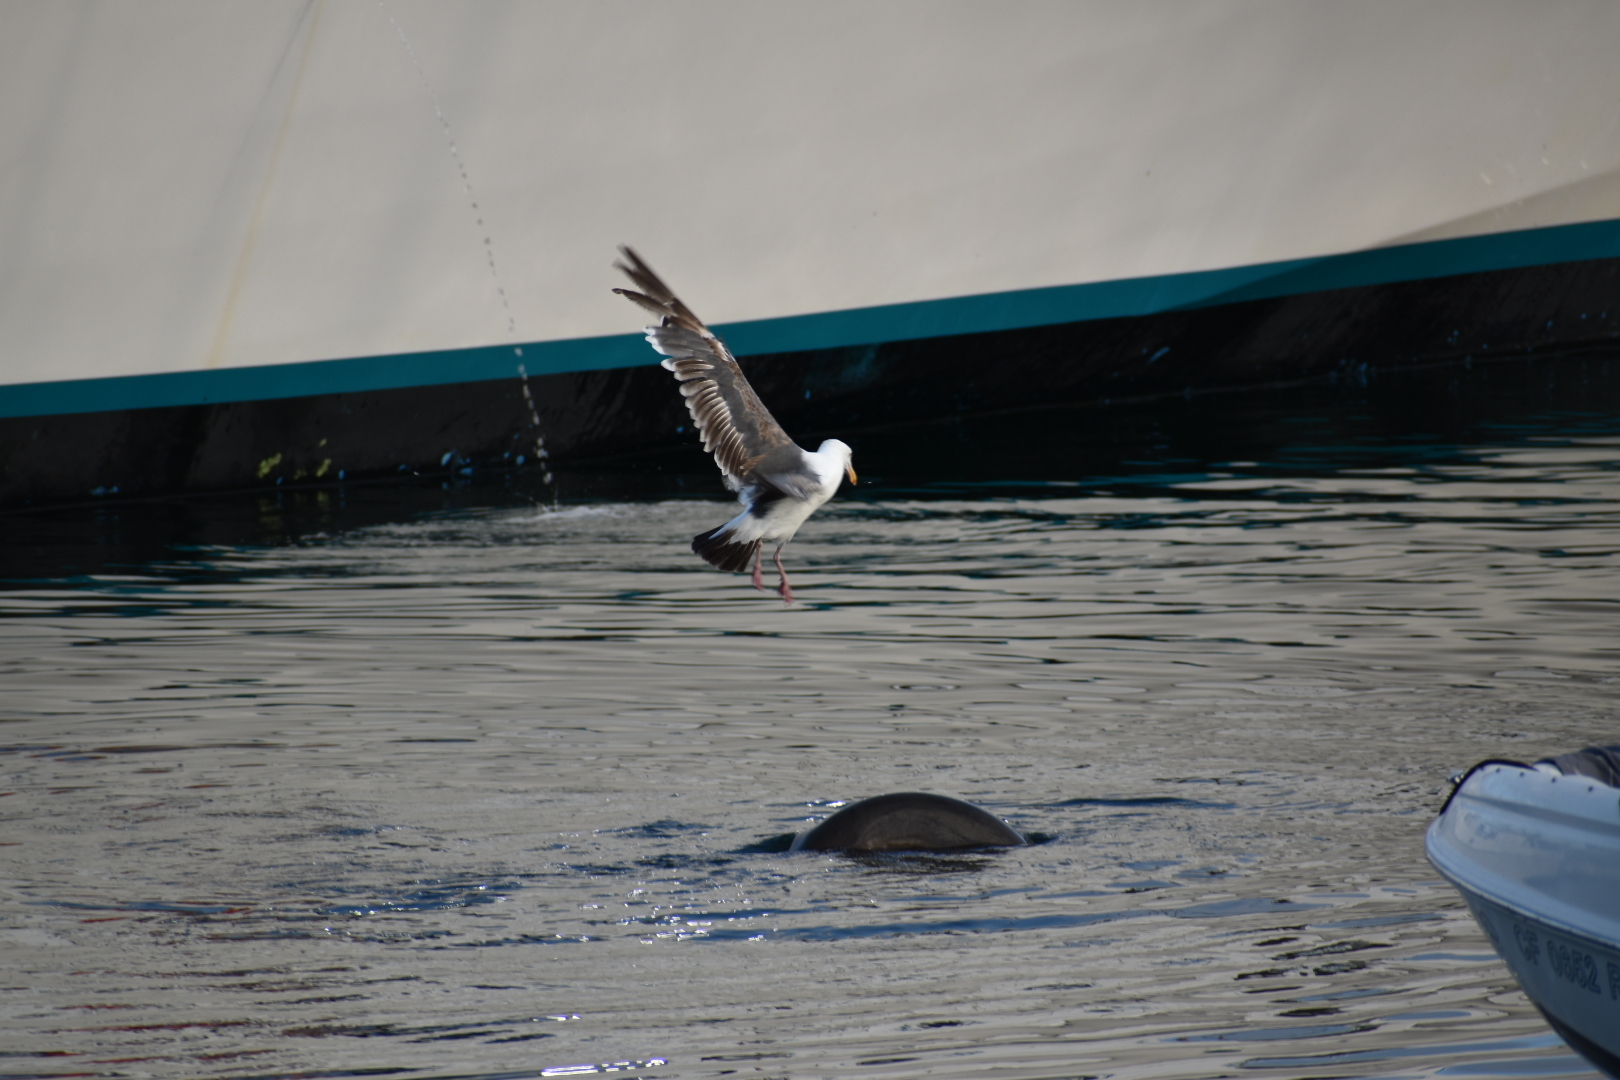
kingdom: Animalia
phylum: Chordata
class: Aves
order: Charadriiformes
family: Laridae
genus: Larus
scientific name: Larus occidentalis
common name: Western gull
